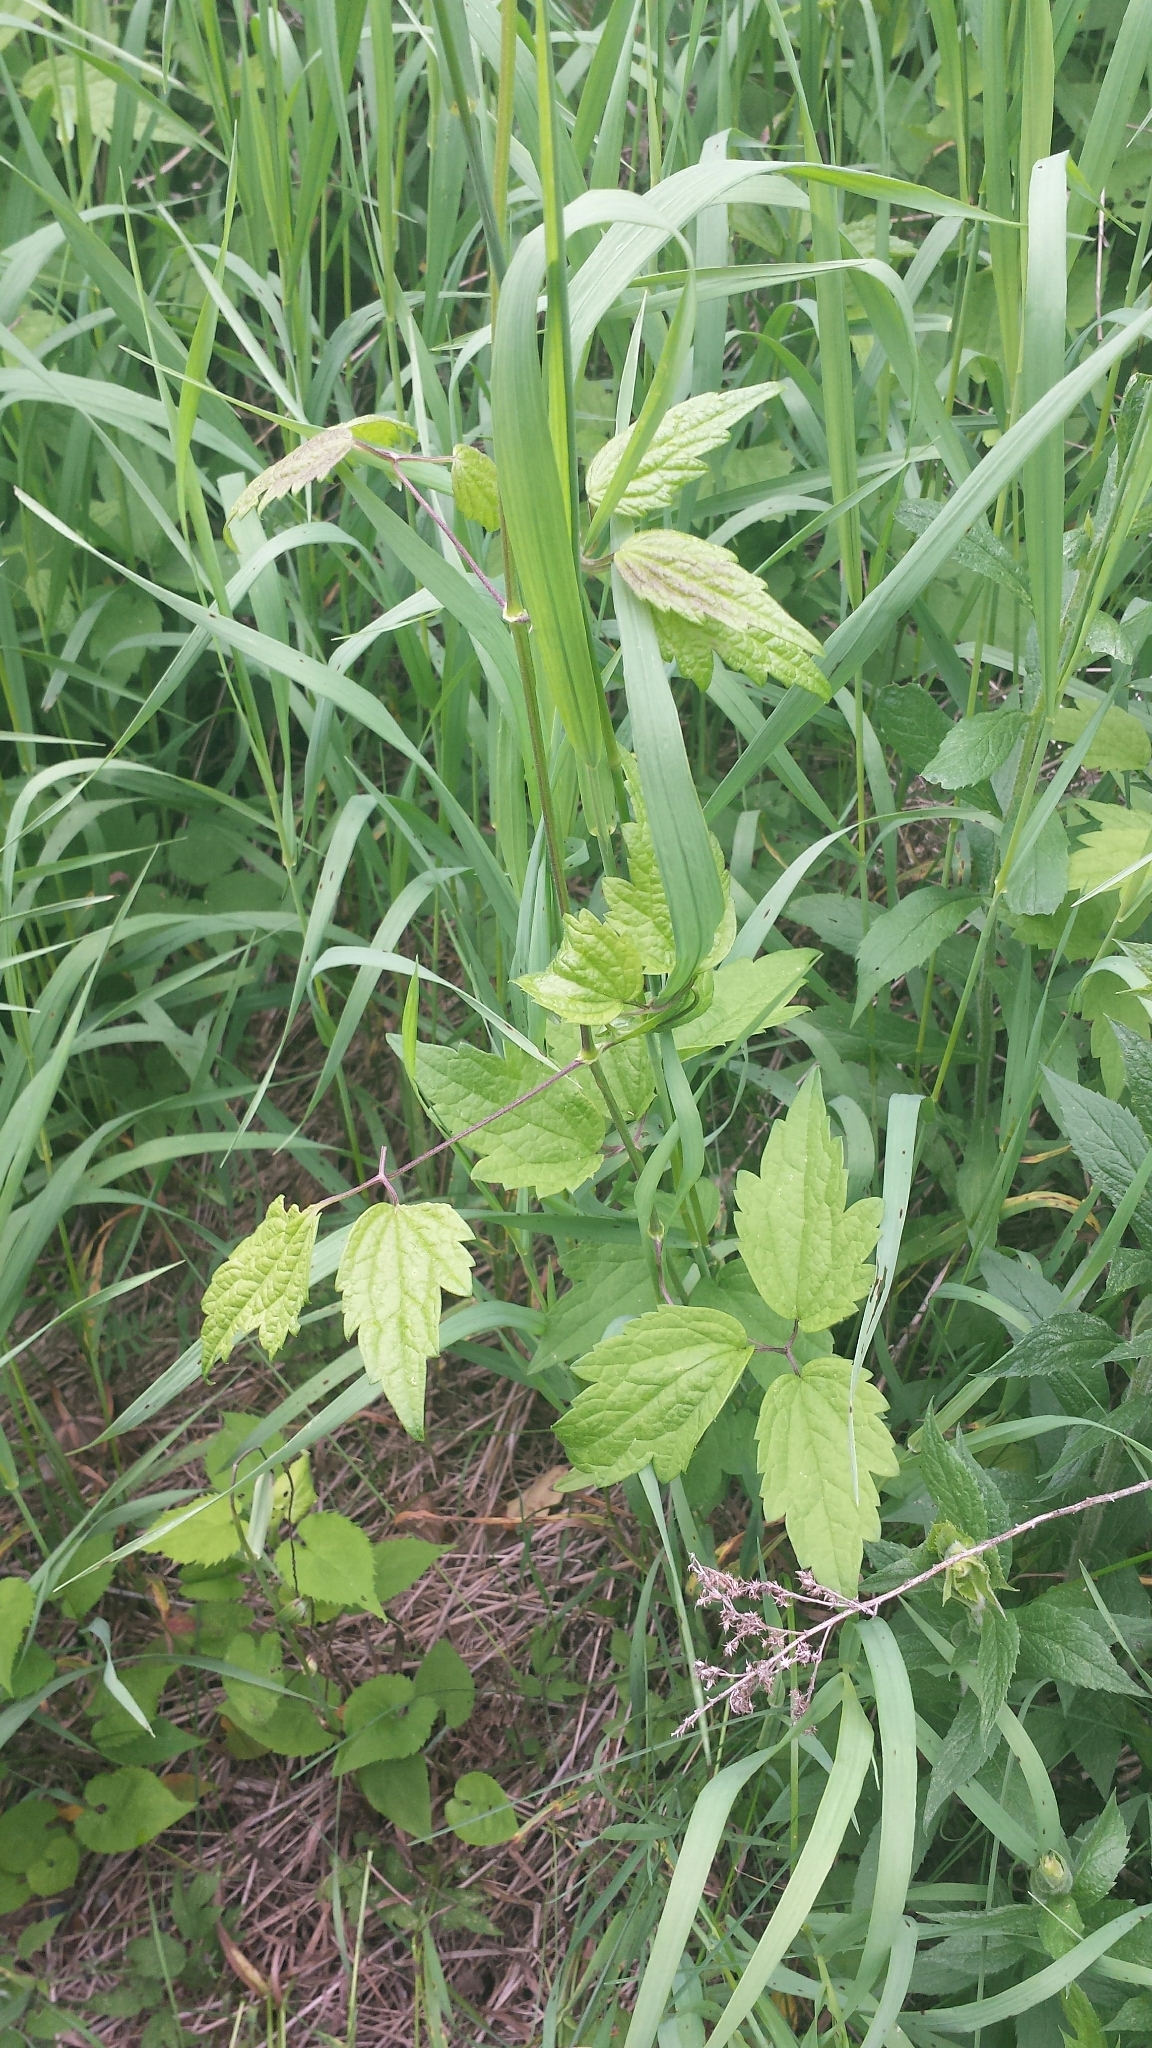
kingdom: Plantae
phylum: Tracheophyta
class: Magnoliopsida
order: Ranunculales
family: Ranunculaceae
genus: Clematis
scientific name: Clematis virginiana
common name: Virgin's-bower
